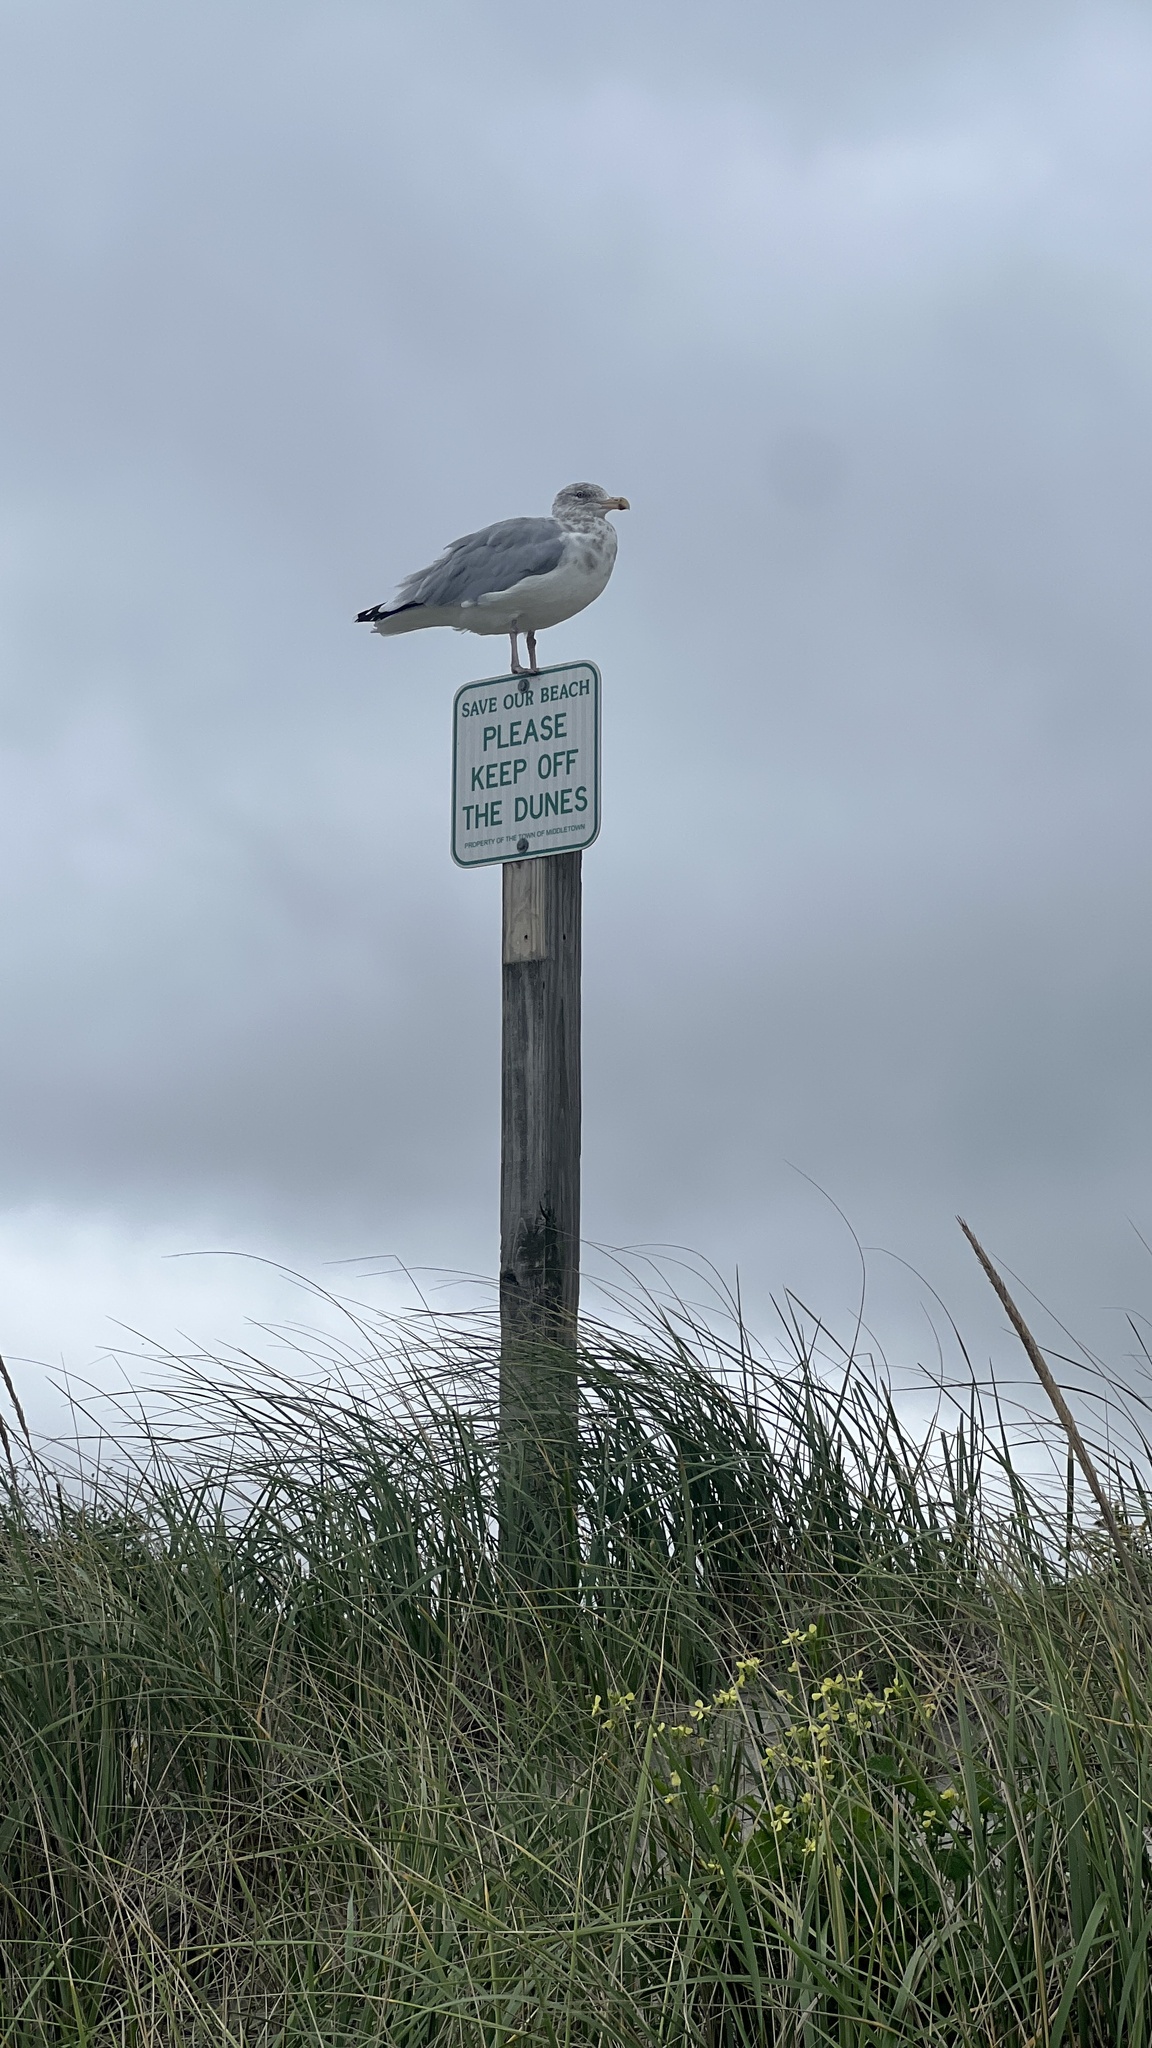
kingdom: Animalia
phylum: Chordata
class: Aves
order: Charadriiformes
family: Laridae
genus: Larus
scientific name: Larus argentatus
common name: Herring gull
